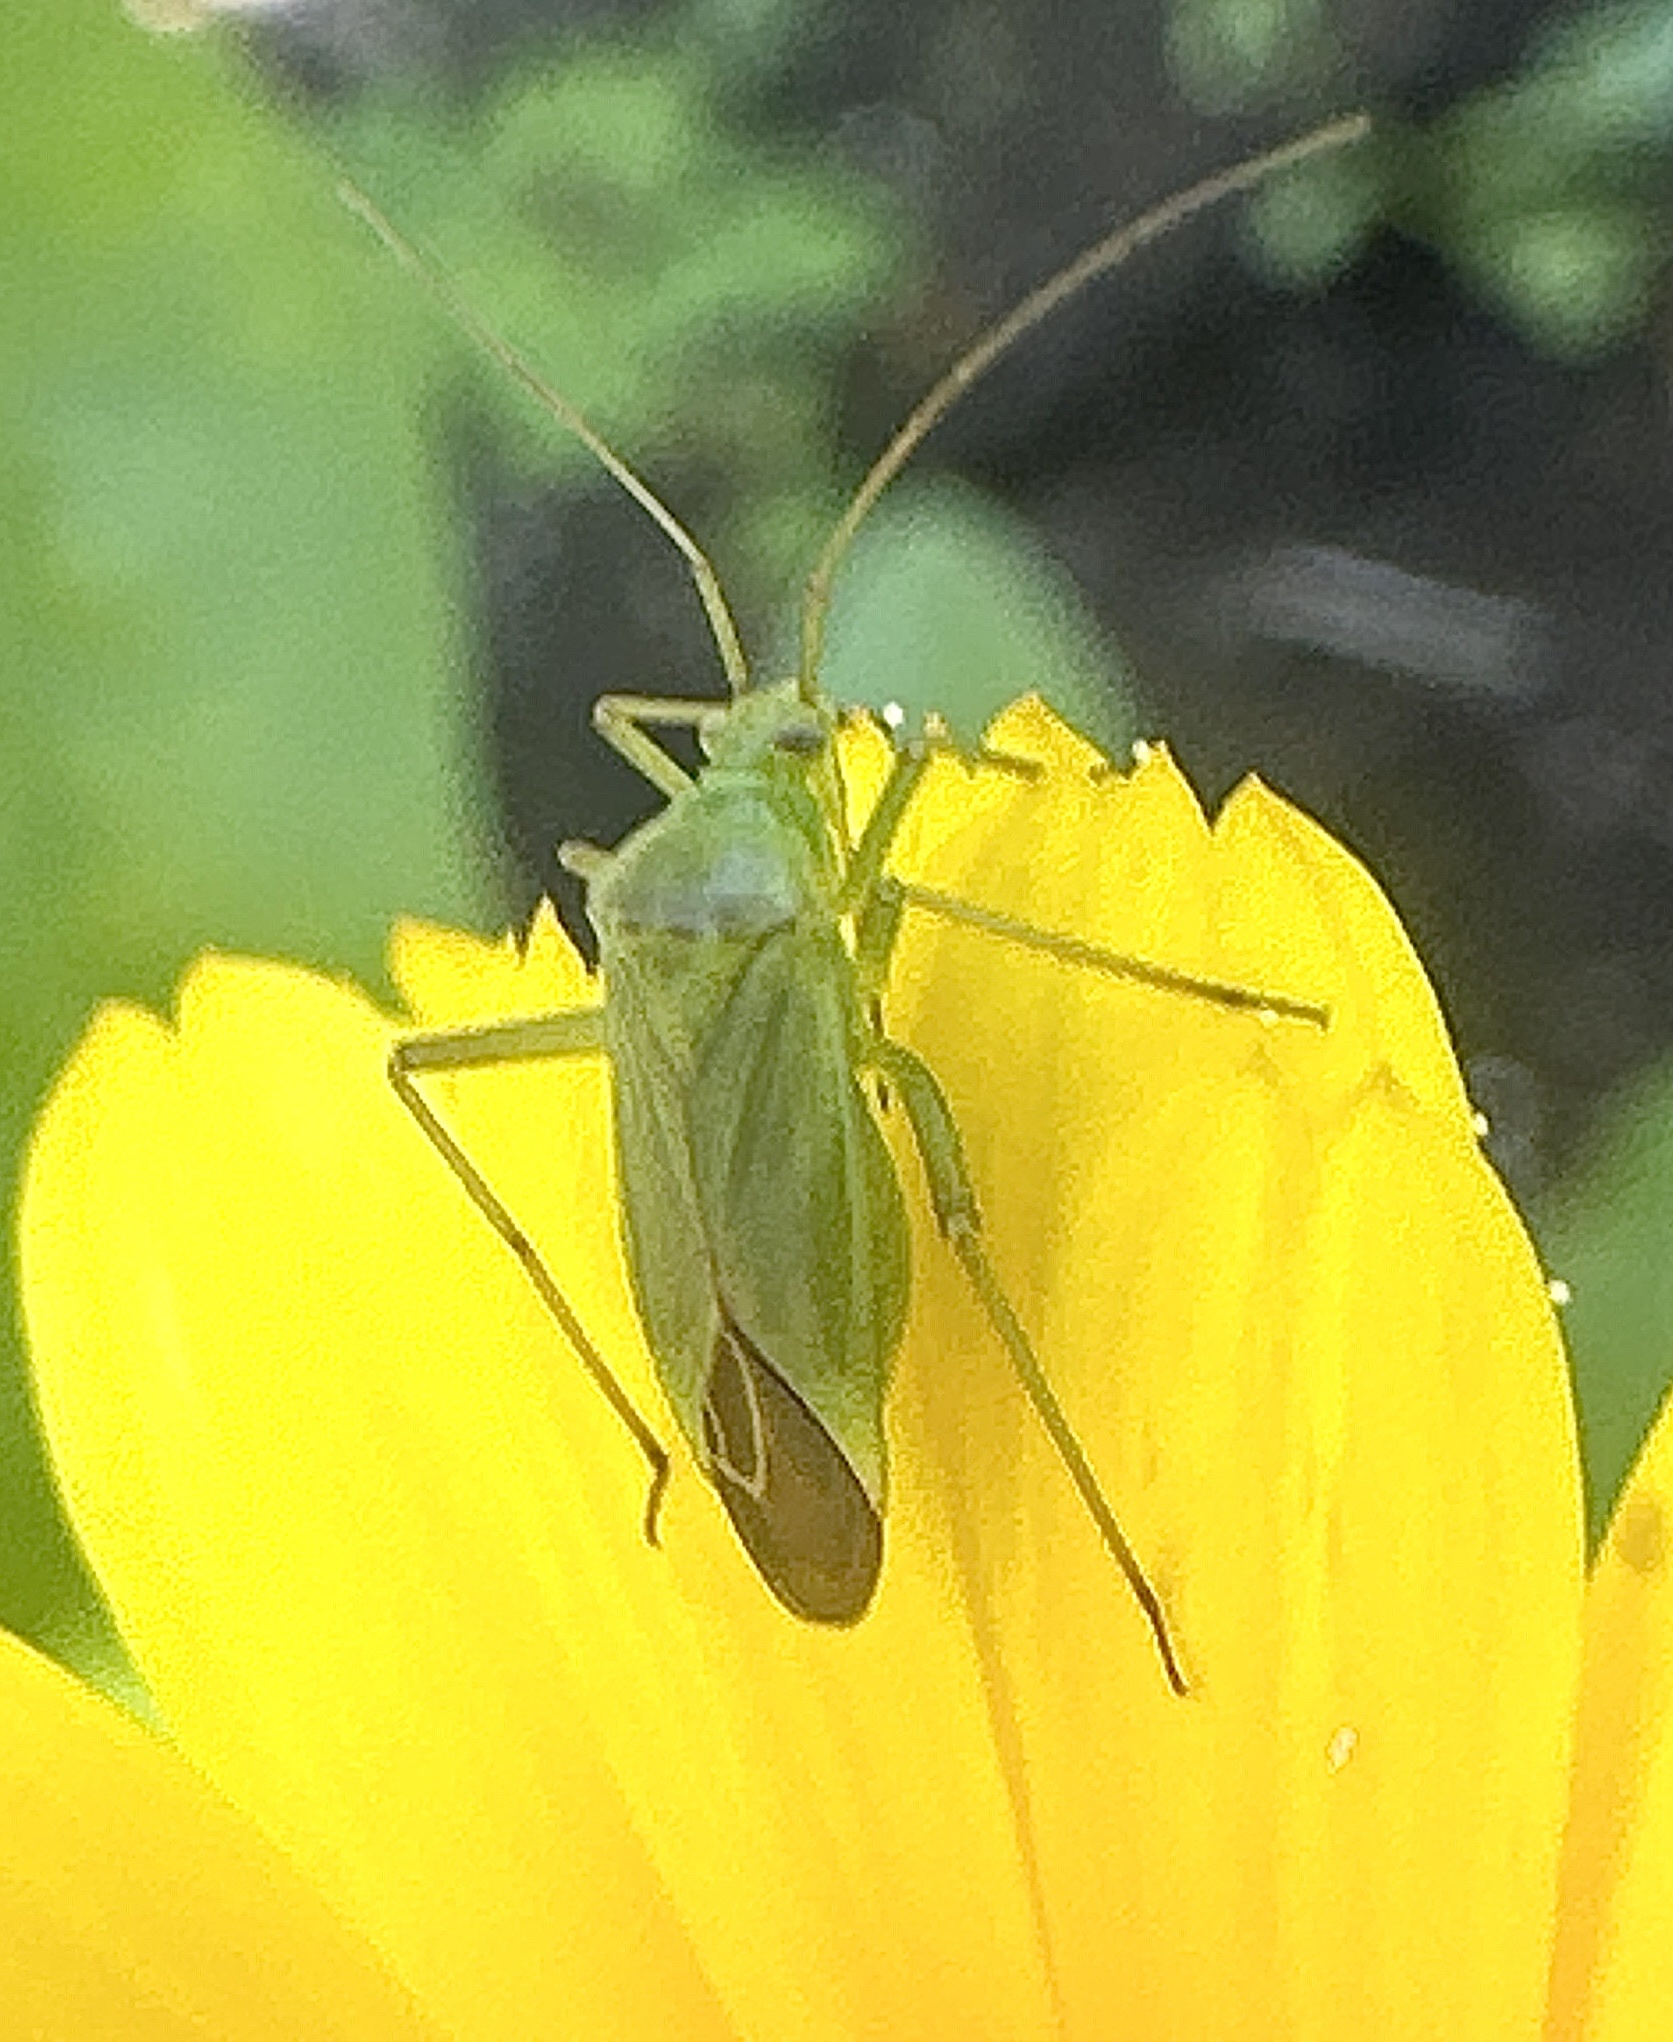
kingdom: Animalia
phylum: Arthropoda
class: Insecta
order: Hemiptera
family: Miridae
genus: Calocoris
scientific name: Calocoris affinis
